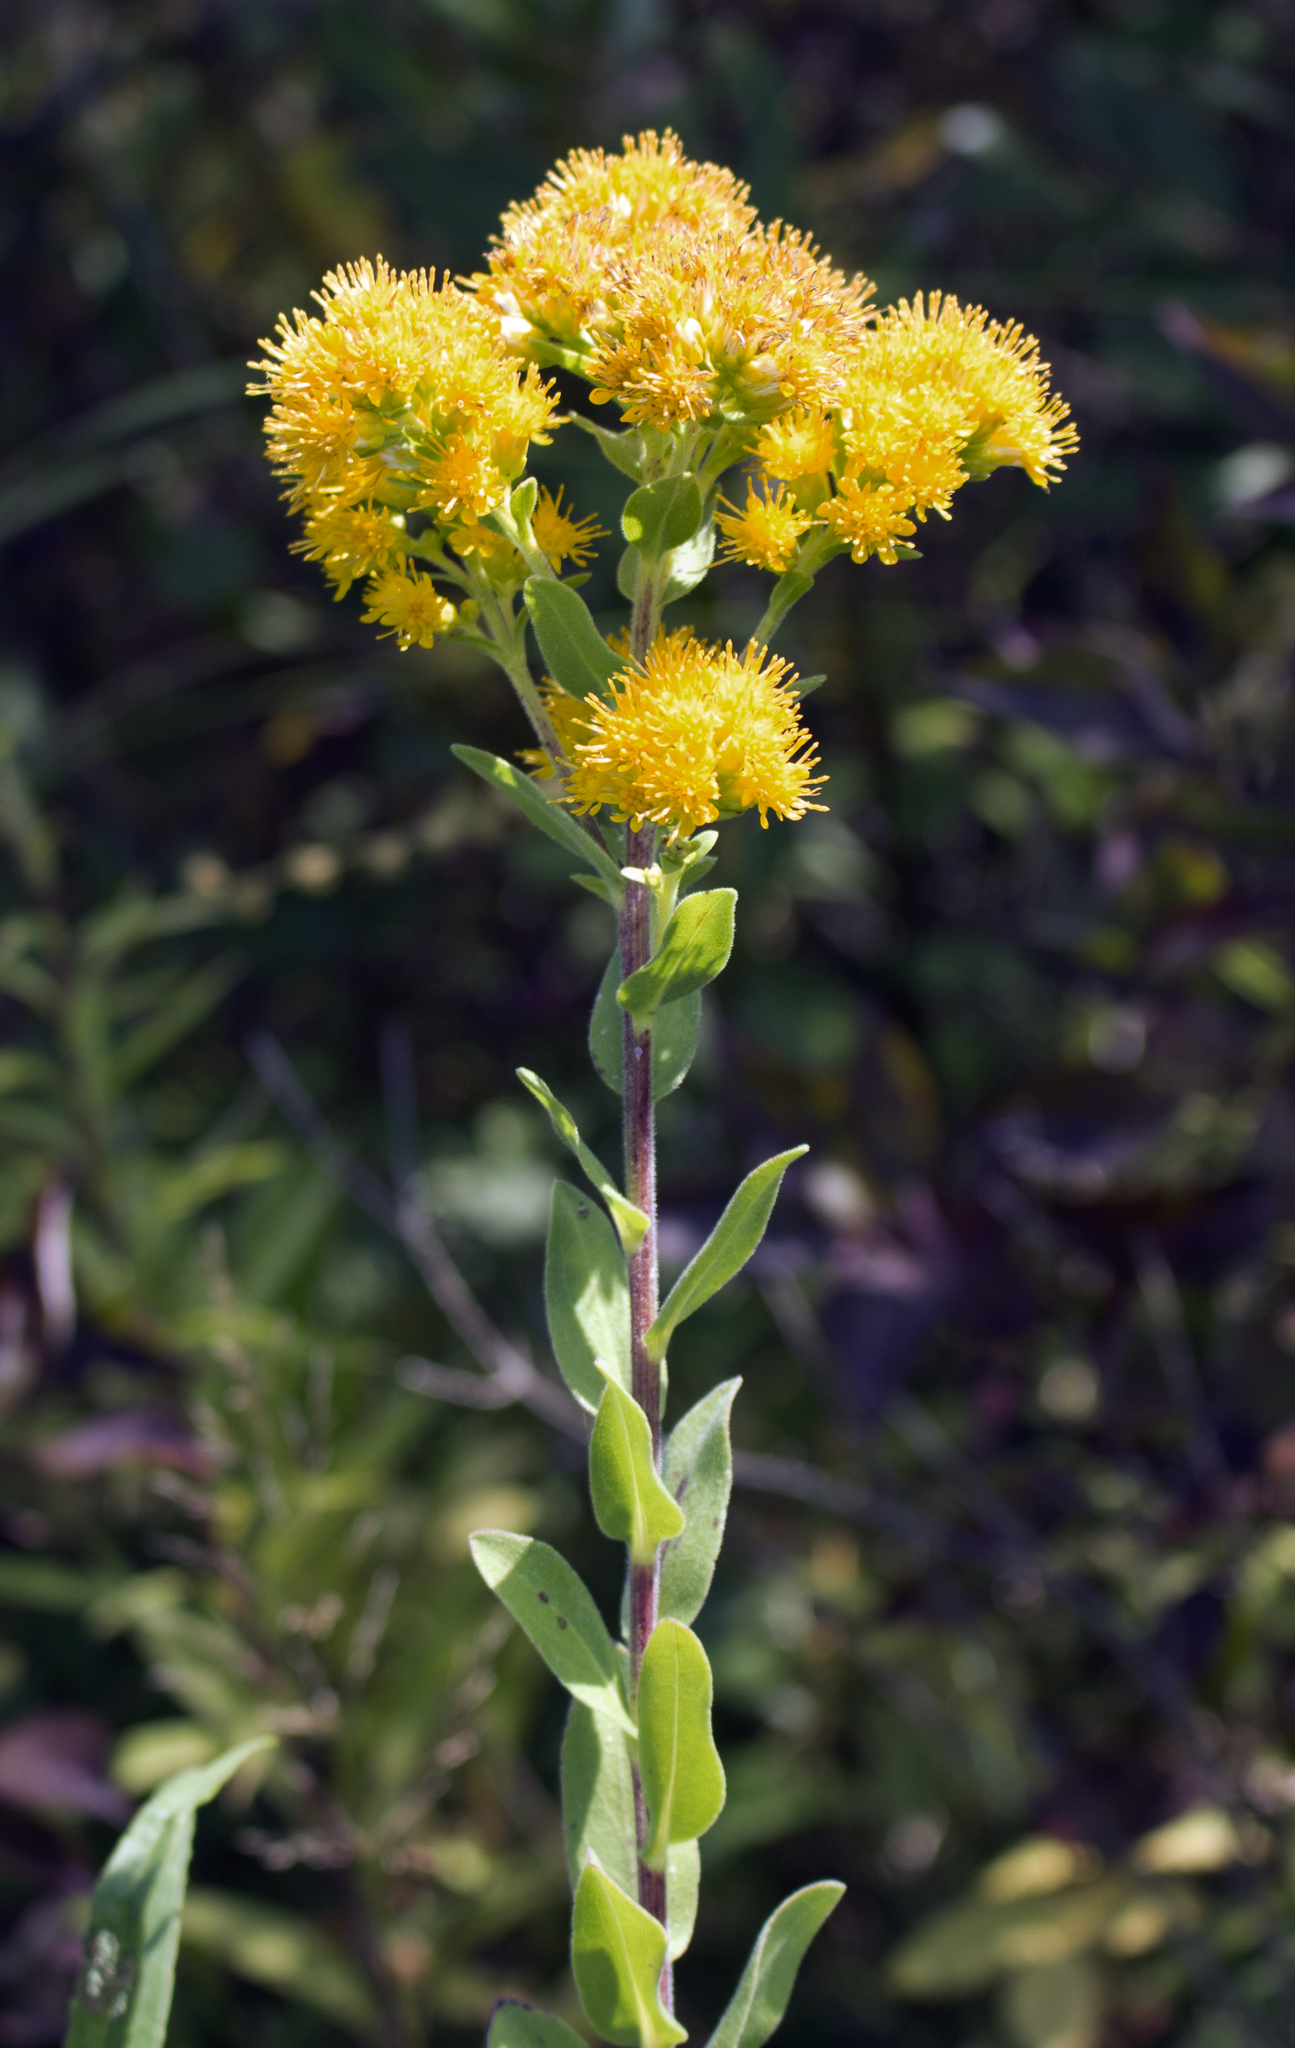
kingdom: Plantae
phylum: Tracheophyta
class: Magnoliopsida
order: Asterales
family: Asteraceae
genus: Solidago
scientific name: Solidago rigida
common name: Rigid goldenrod
